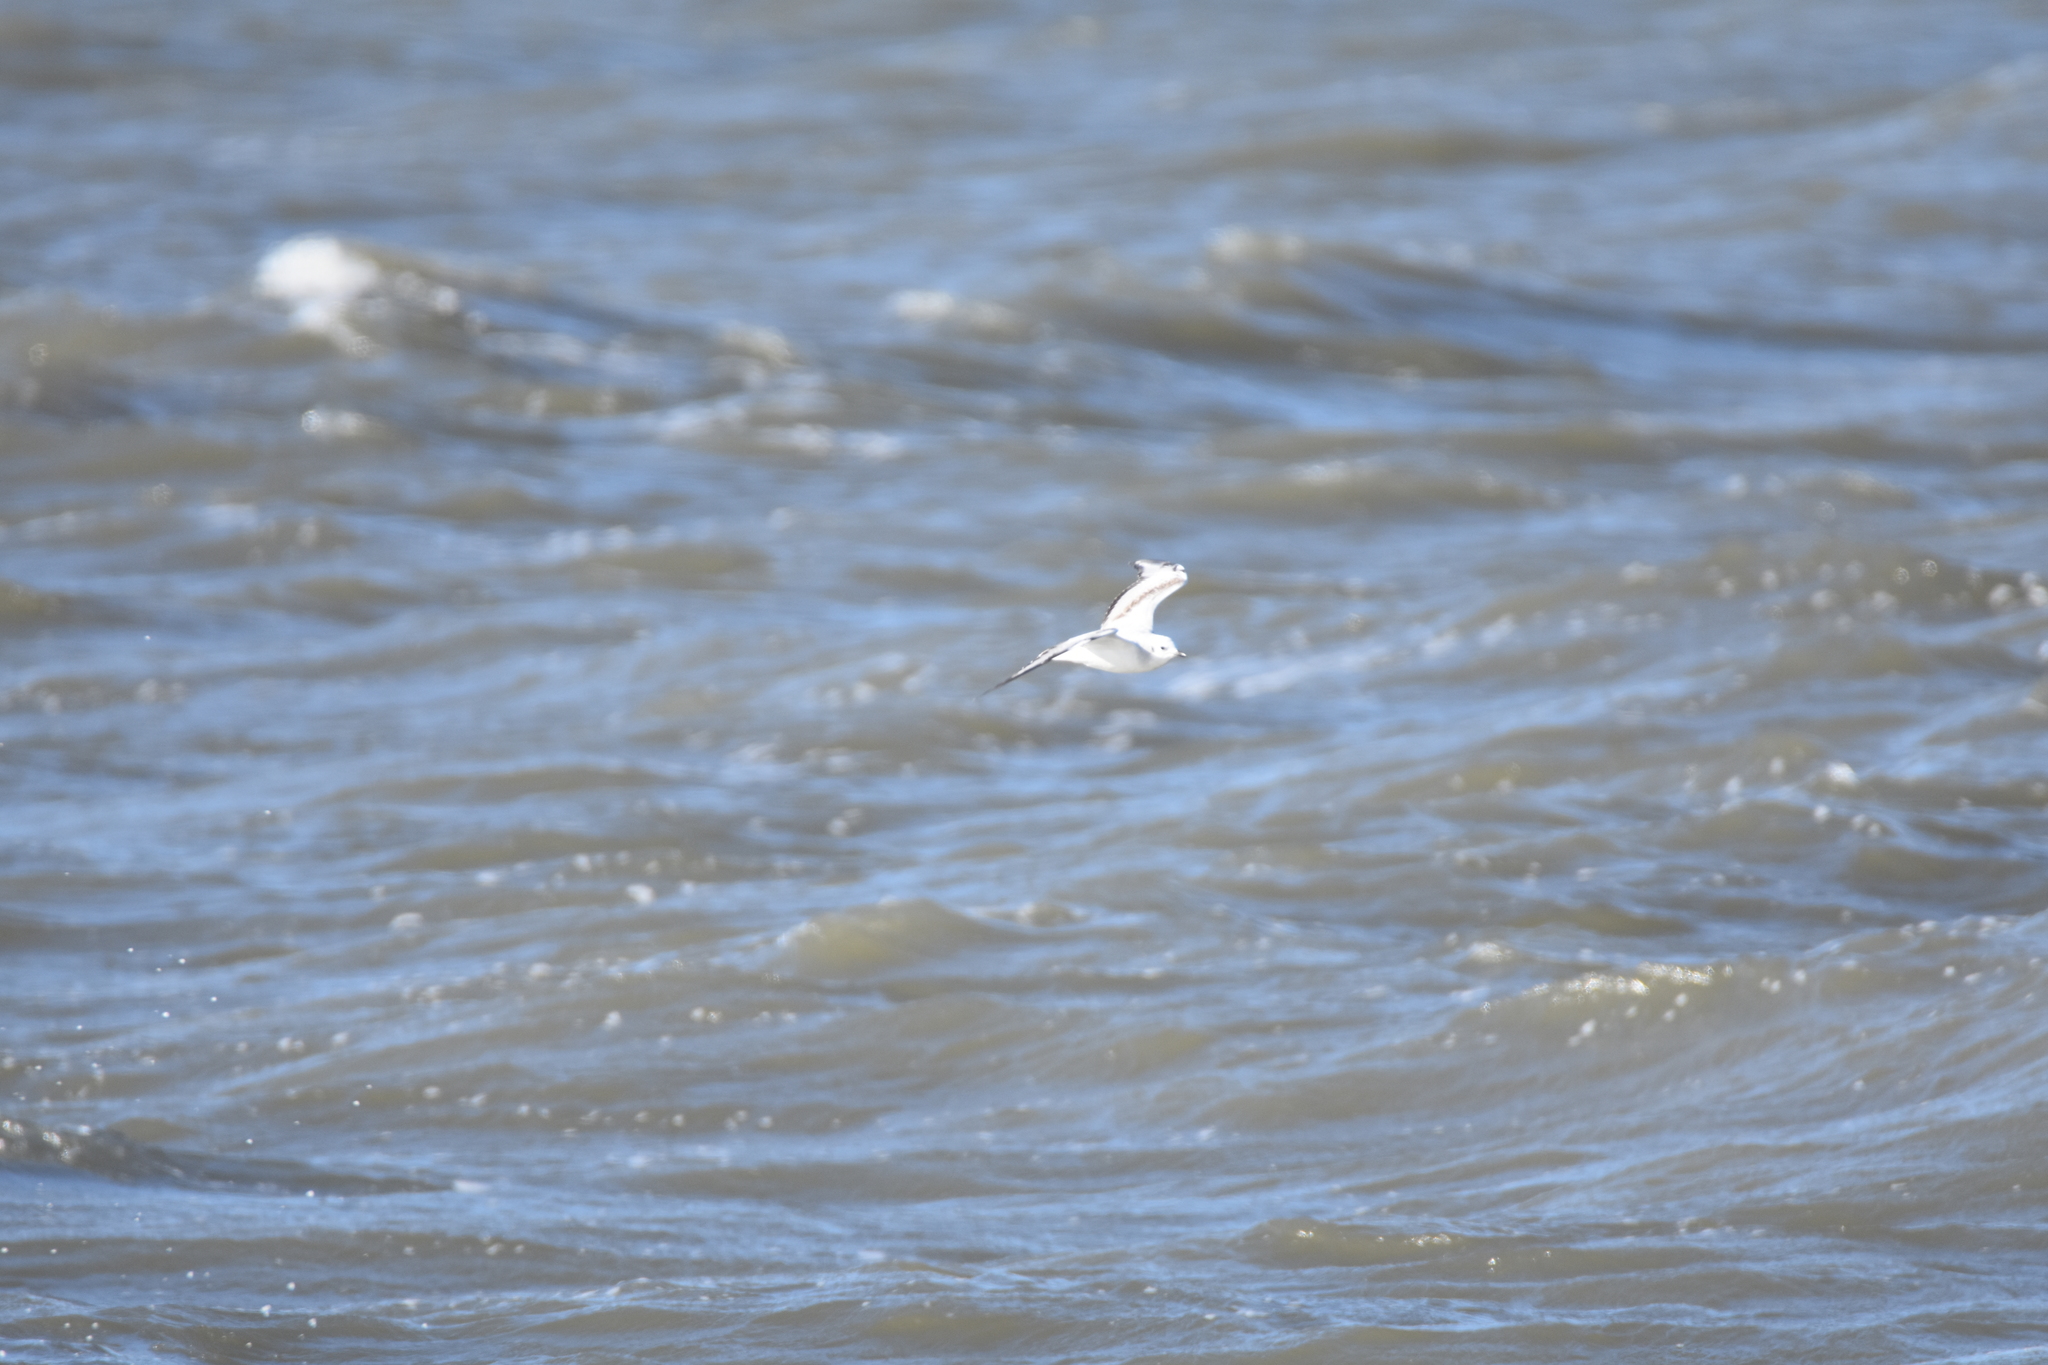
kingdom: Animalia
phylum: Chordata
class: Aves
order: Charadriiformes
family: Laridae
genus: Chroicocephalus
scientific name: Chroicocephalus philadelphia
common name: Bonaparte's gull
